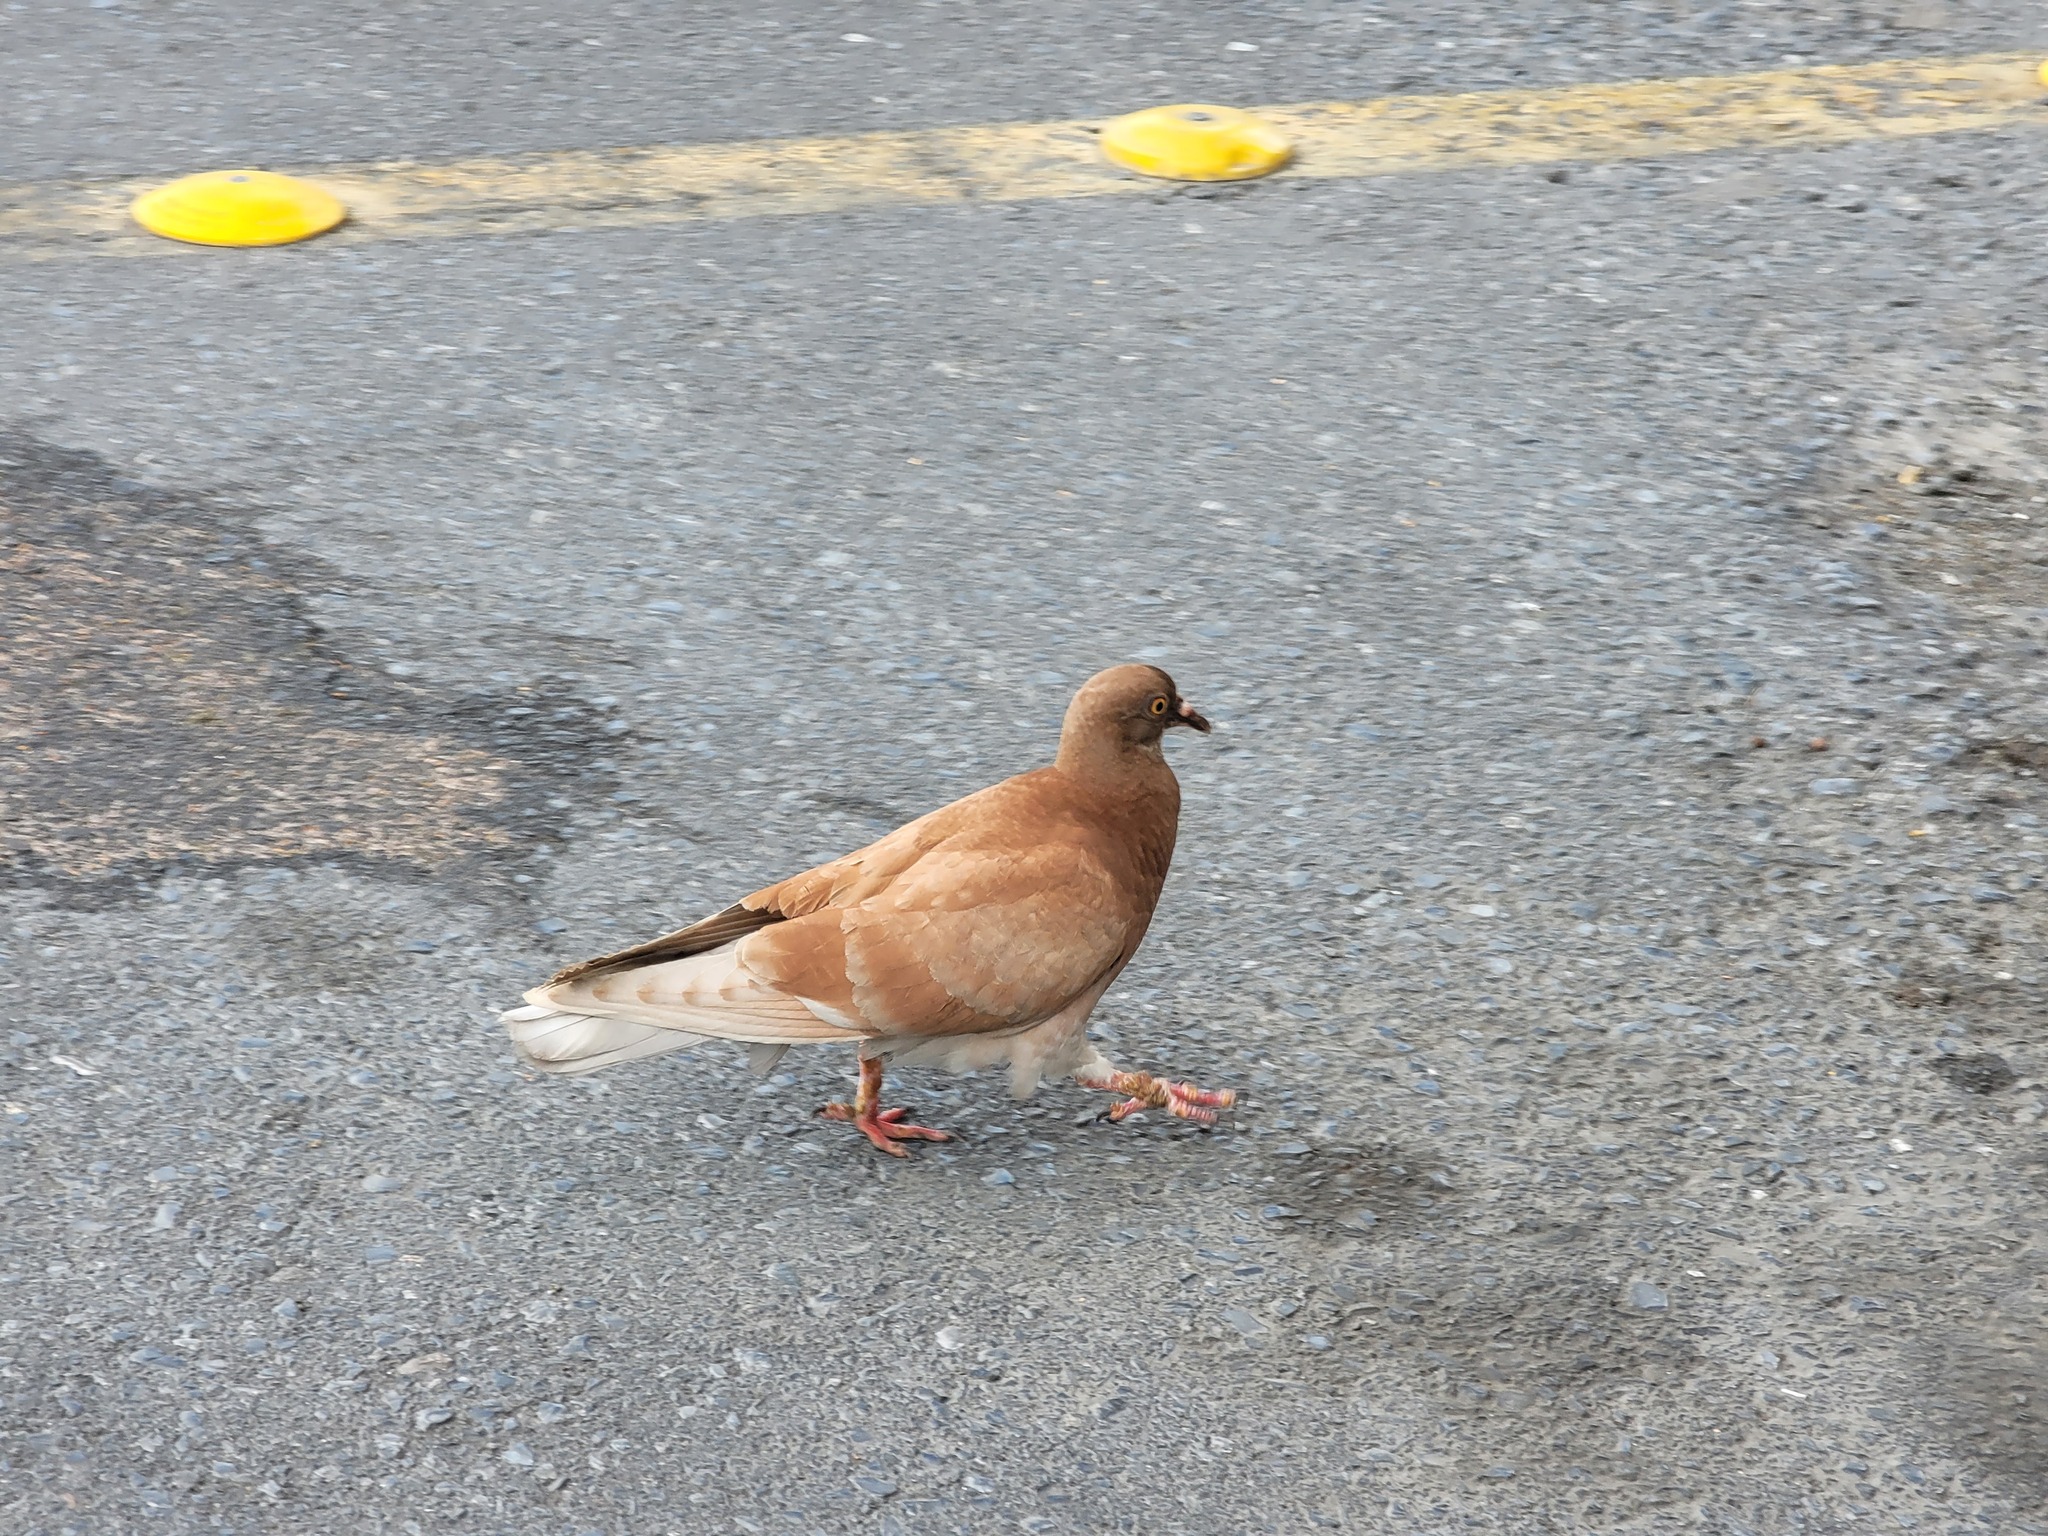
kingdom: Animalia
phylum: Chordata
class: Aves
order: Columbiformes
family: Columbidae
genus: Columba
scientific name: Columba livia
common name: Rock pigeon
